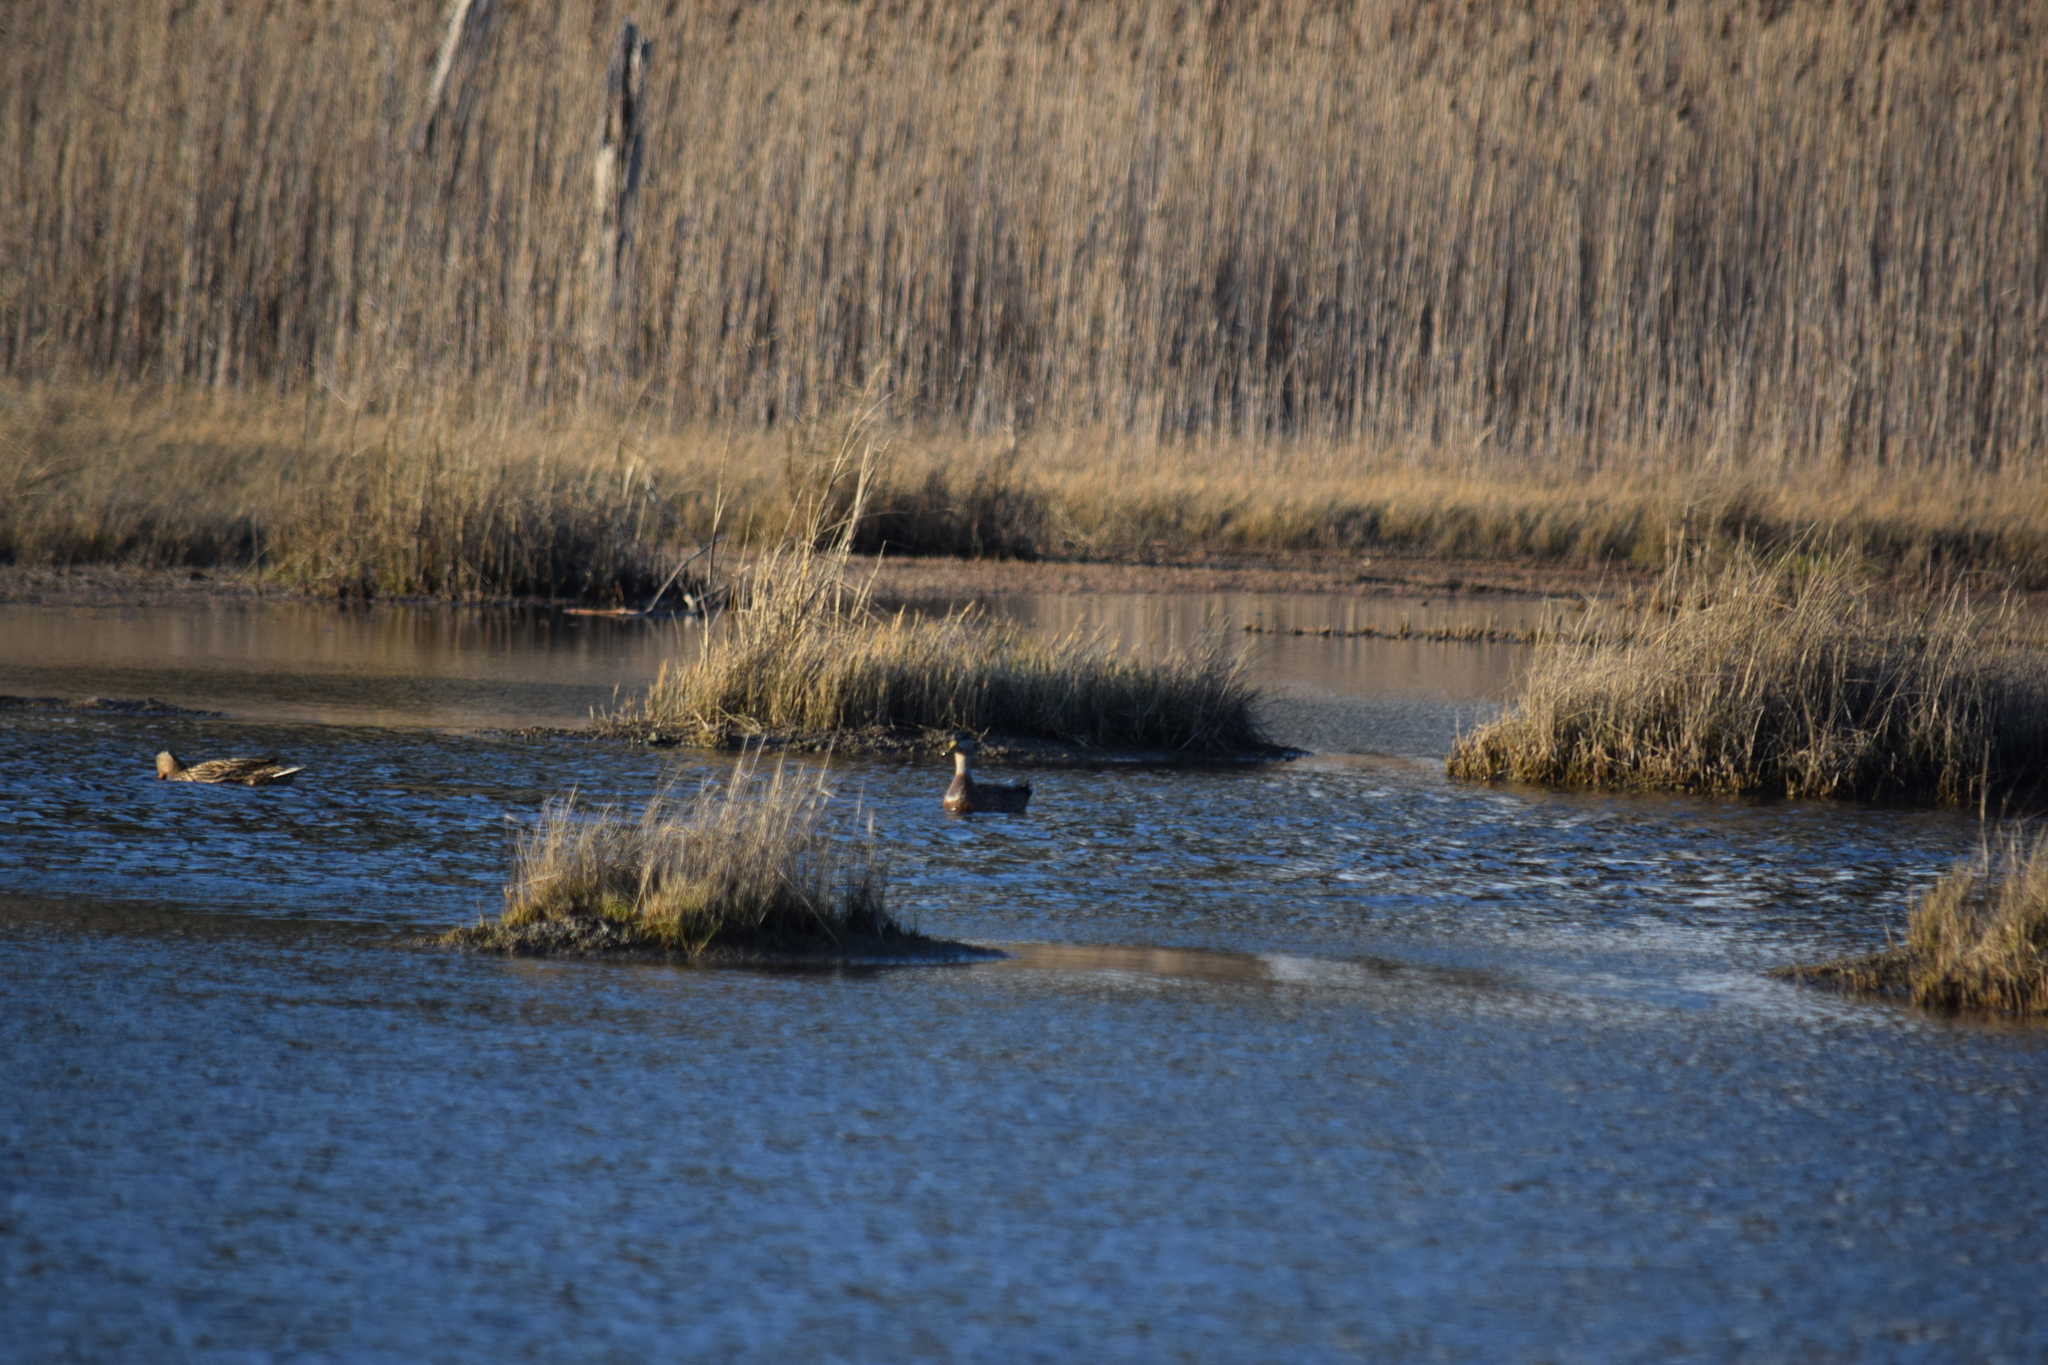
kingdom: Animalia
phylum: Chordata
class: Aves
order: Anseriformes
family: Anatidae
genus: Anas
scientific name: Anas rubripes
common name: American black duck
